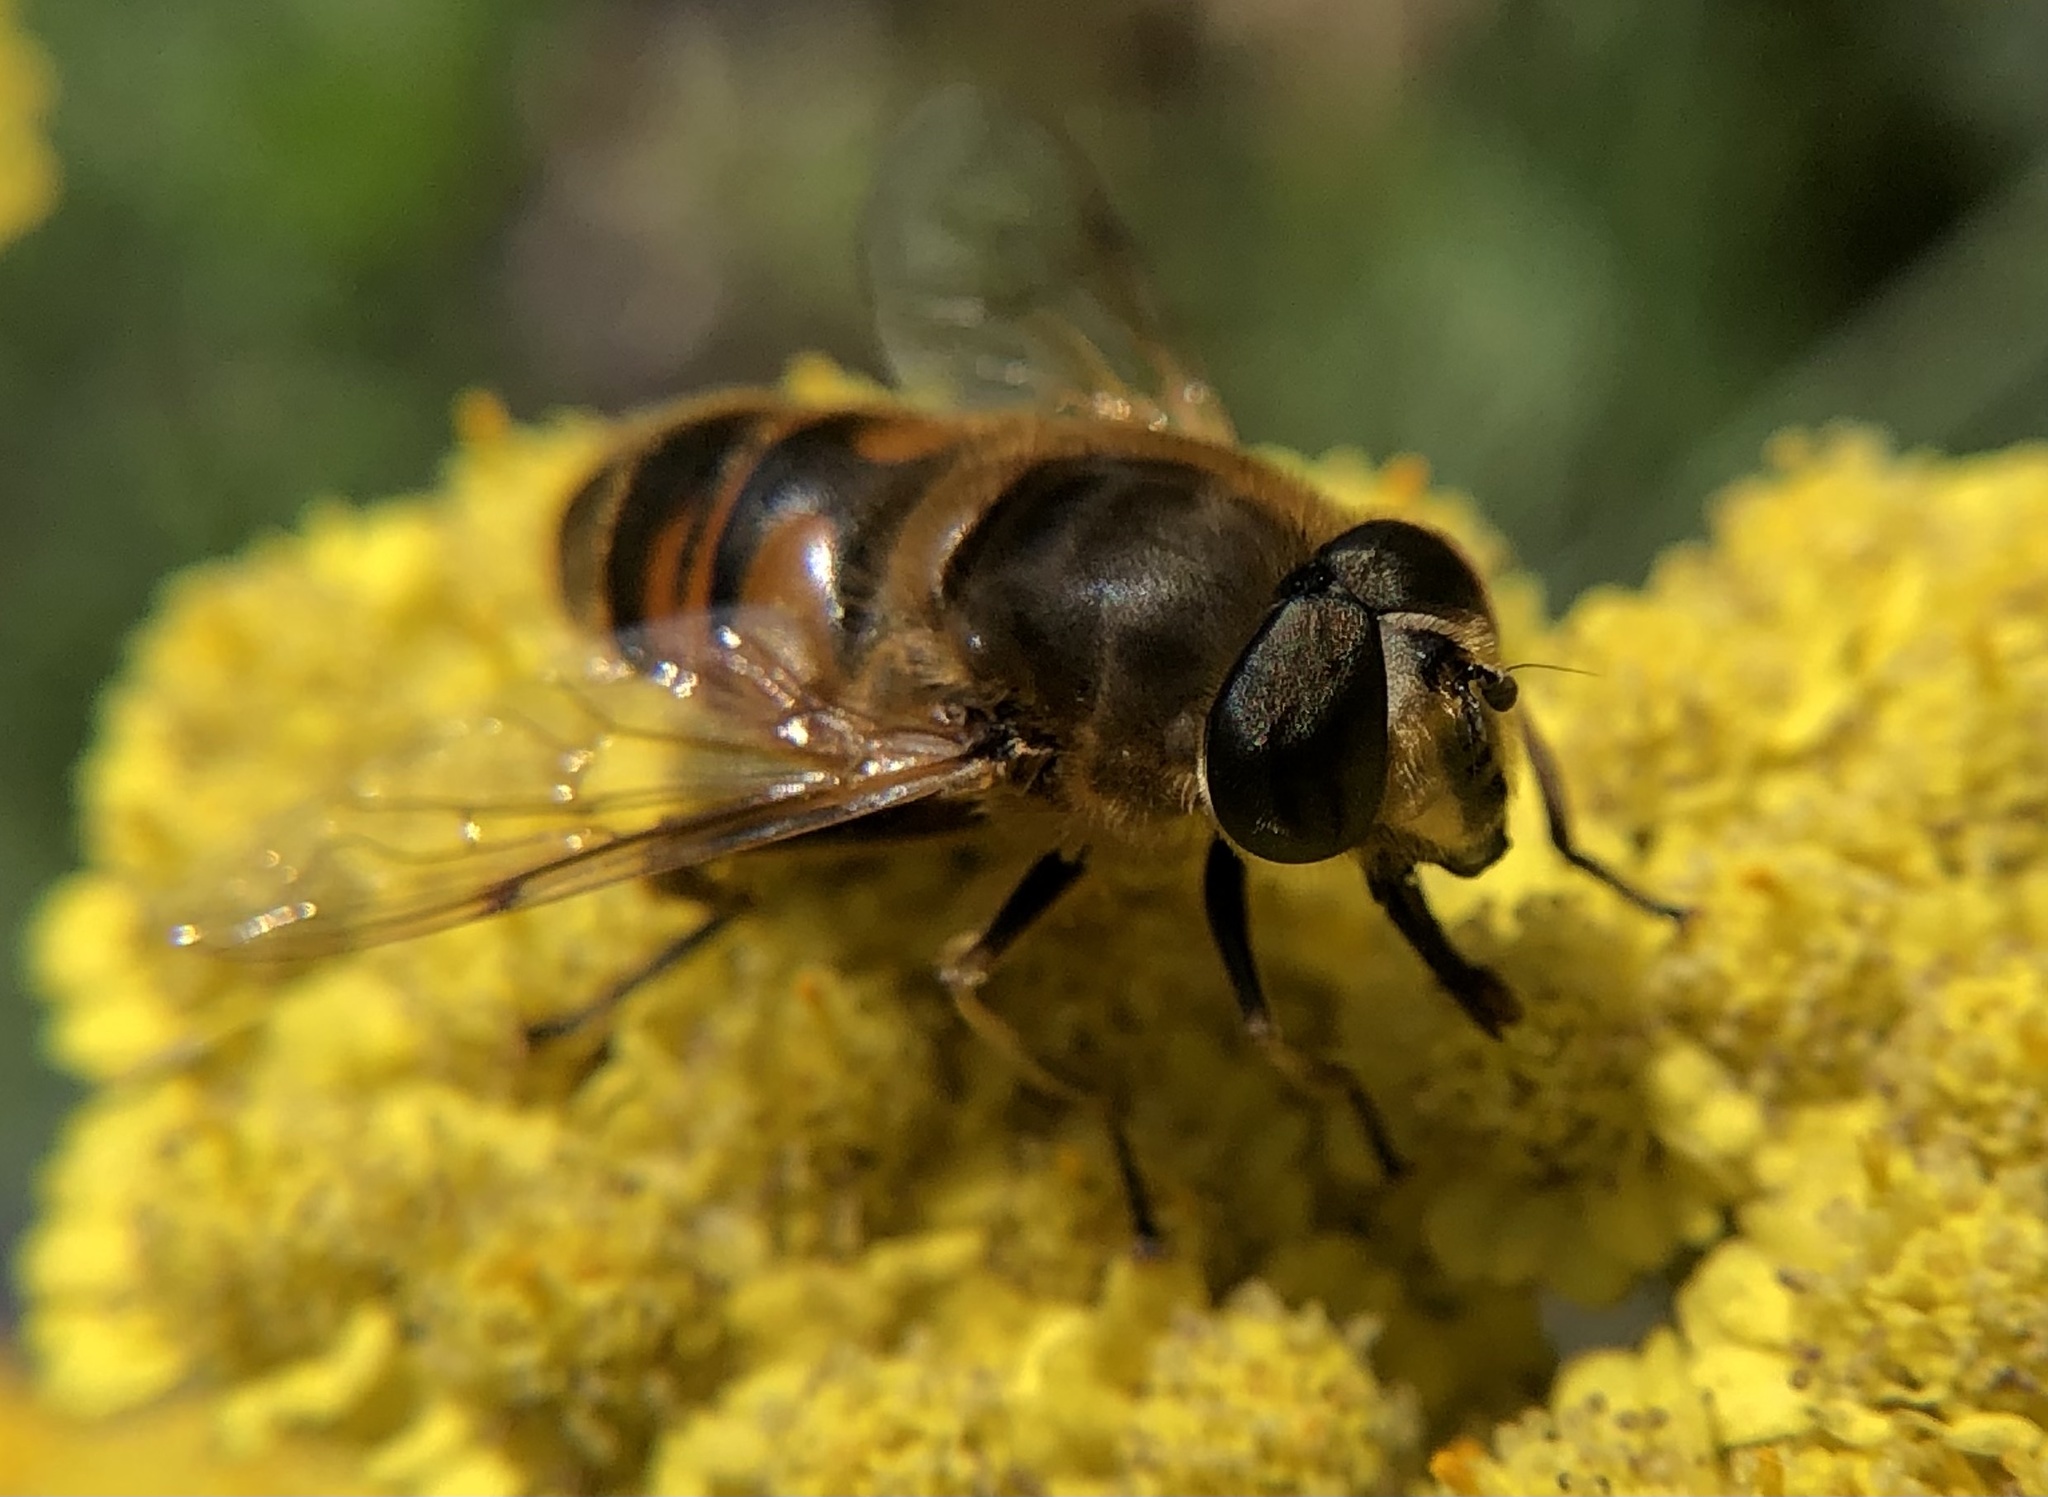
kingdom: Animalia
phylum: Arthropoda
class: Insecta
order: Diptera
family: Syrphidae
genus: Eristalis
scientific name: Eristalis tenax
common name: Drone fly
